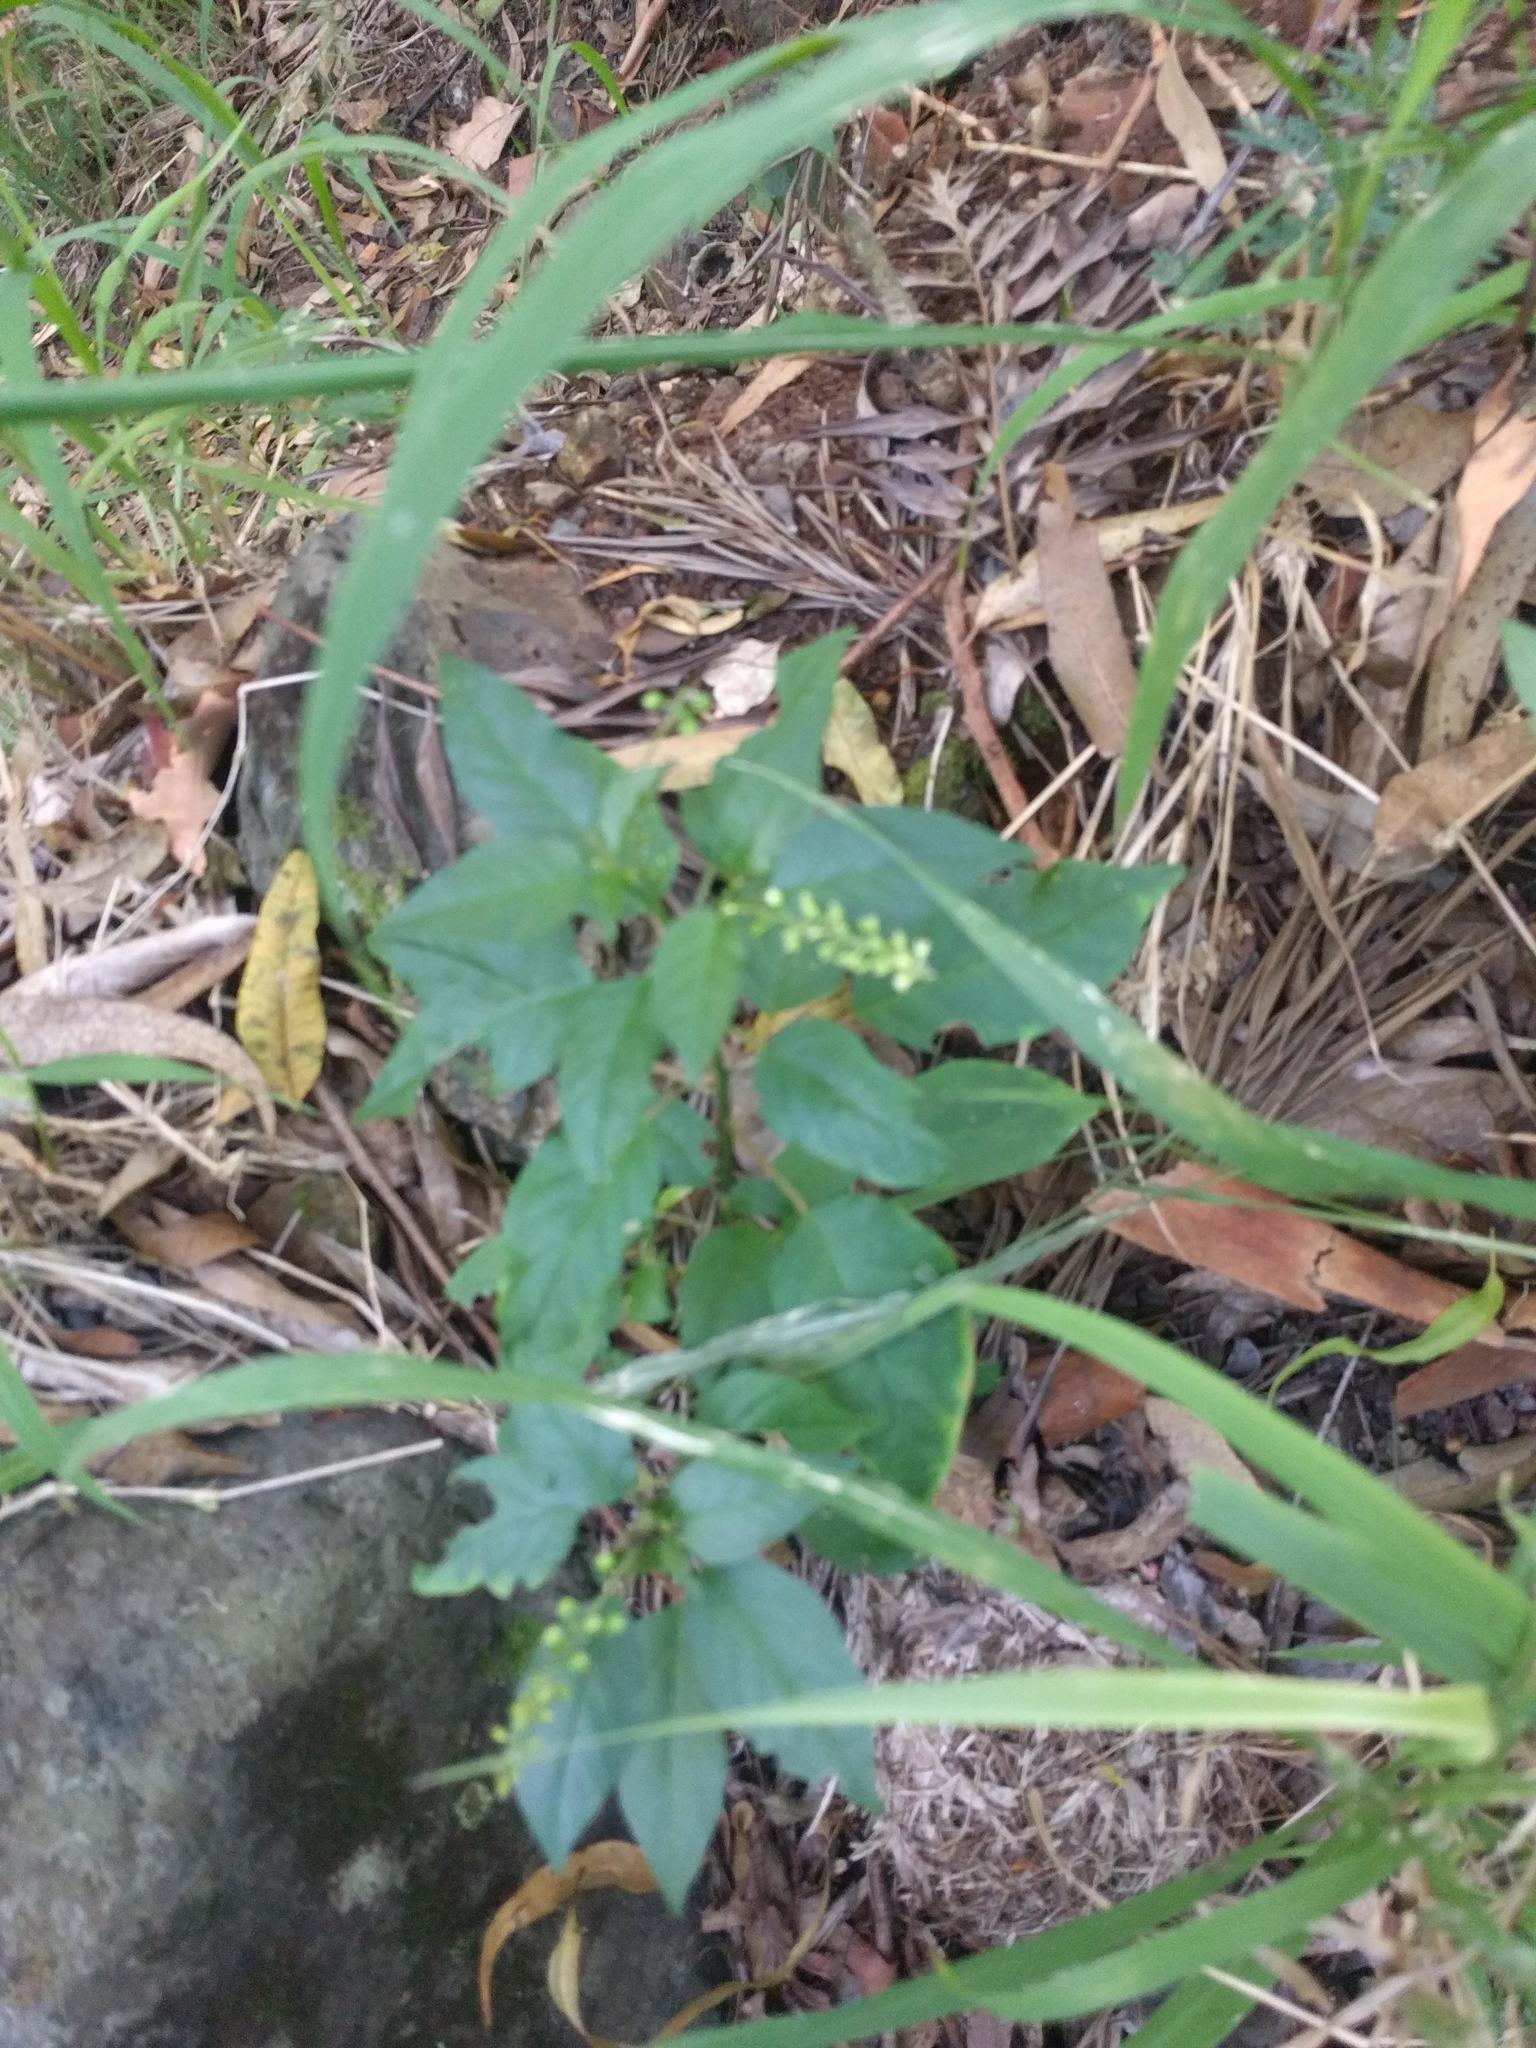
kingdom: Plantae
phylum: Tracheophyta
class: Magnoliopsida
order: Caryophyllales
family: Phytolaccaceae
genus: Rivina
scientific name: Rivina humilis
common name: Rougeplant
